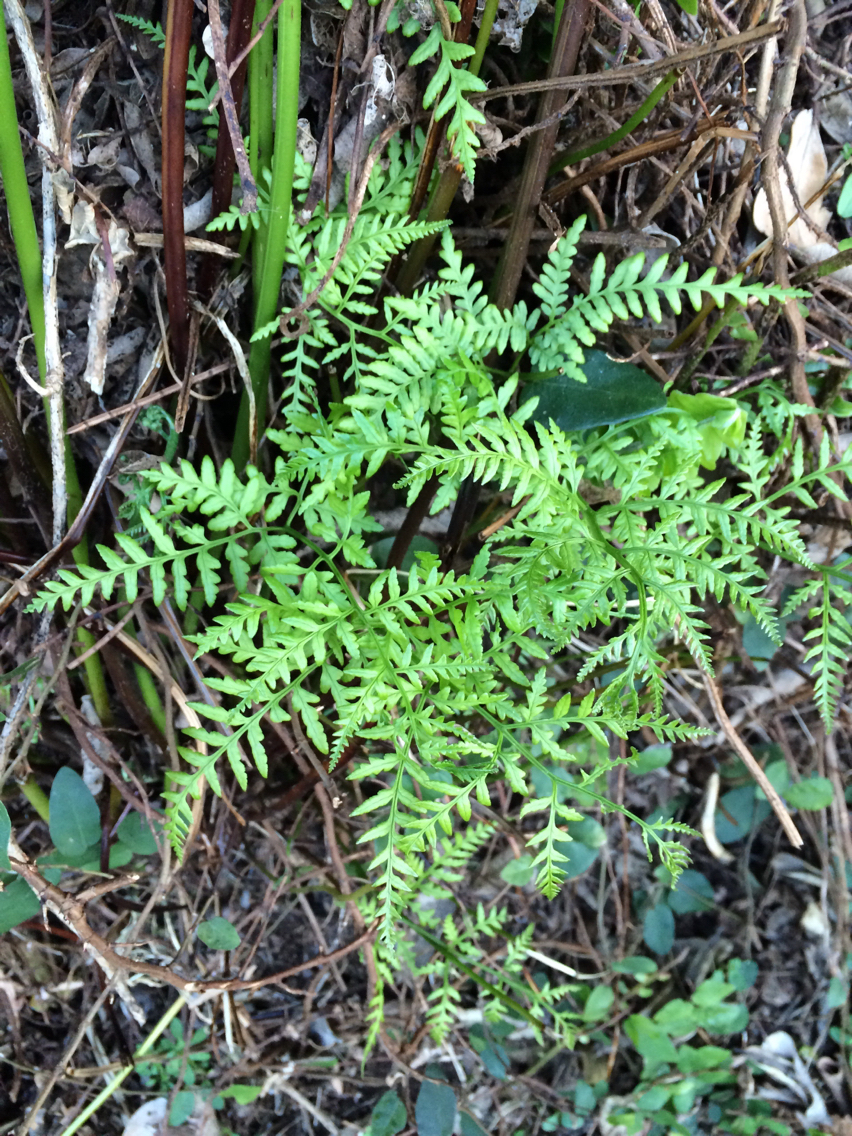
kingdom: Plantae
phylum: Tracheophyta
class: Polypodiopsida
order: Polypodiales
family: Pteridaceae
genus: Pteris
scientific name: Pteris tremula
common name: Australian brake
